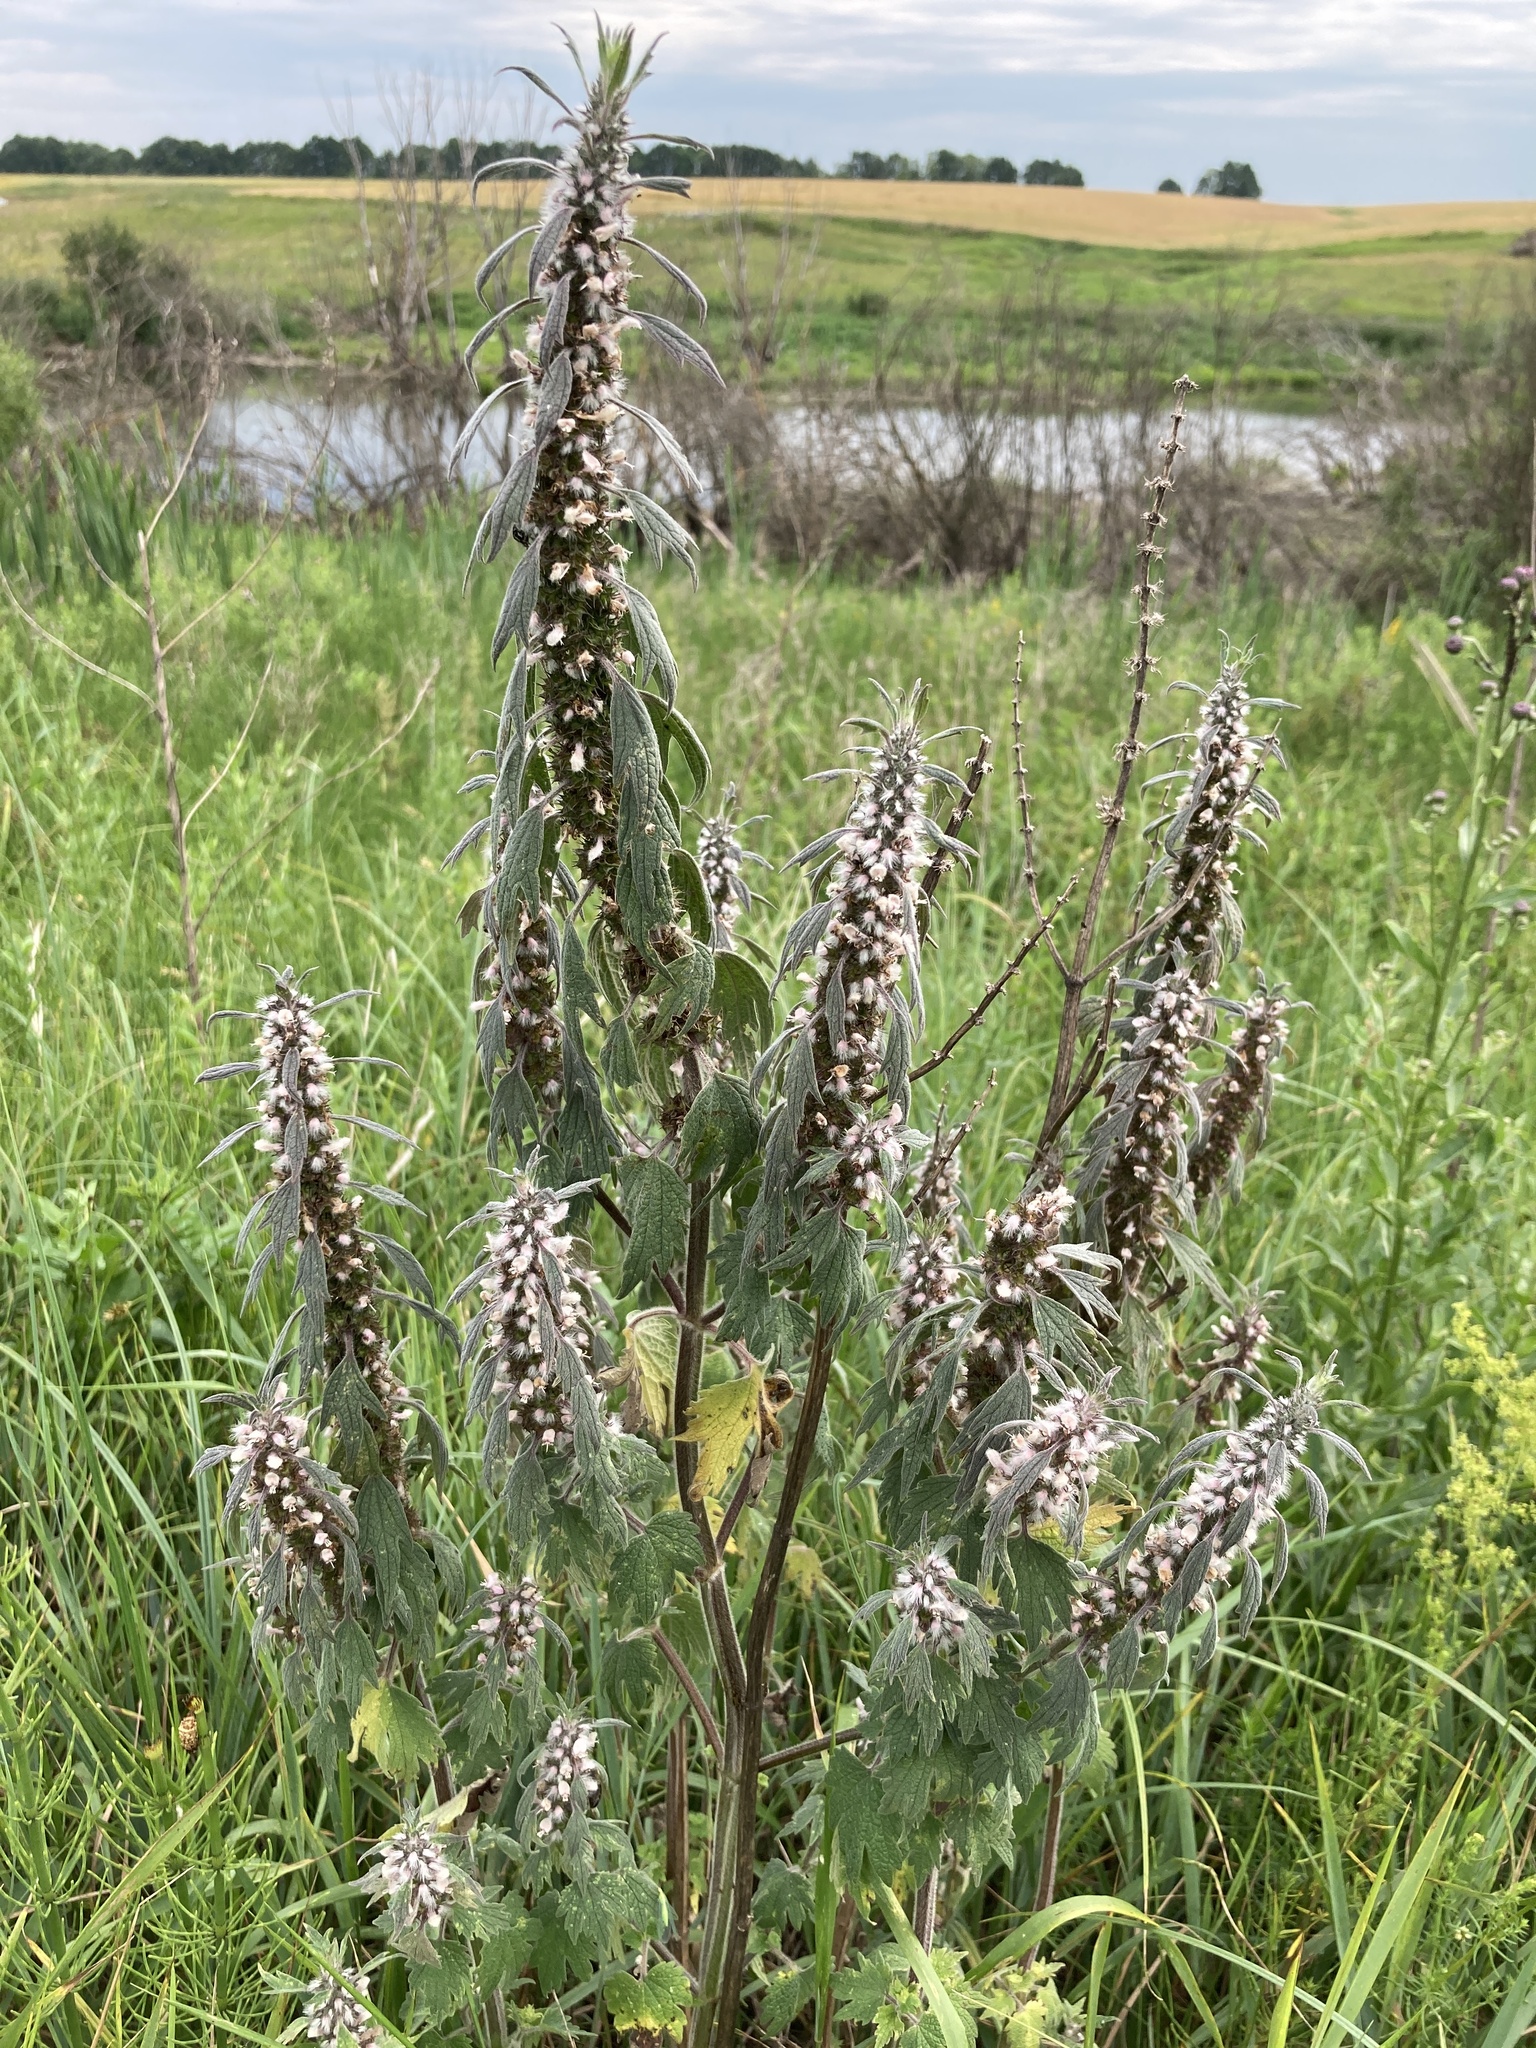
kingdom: Plantae
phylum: Tracheophyta
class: Magnoliopsida
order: Lamiales
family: Lamiaceae
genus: Leonurus
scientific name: Leonurus quinquelobatus
